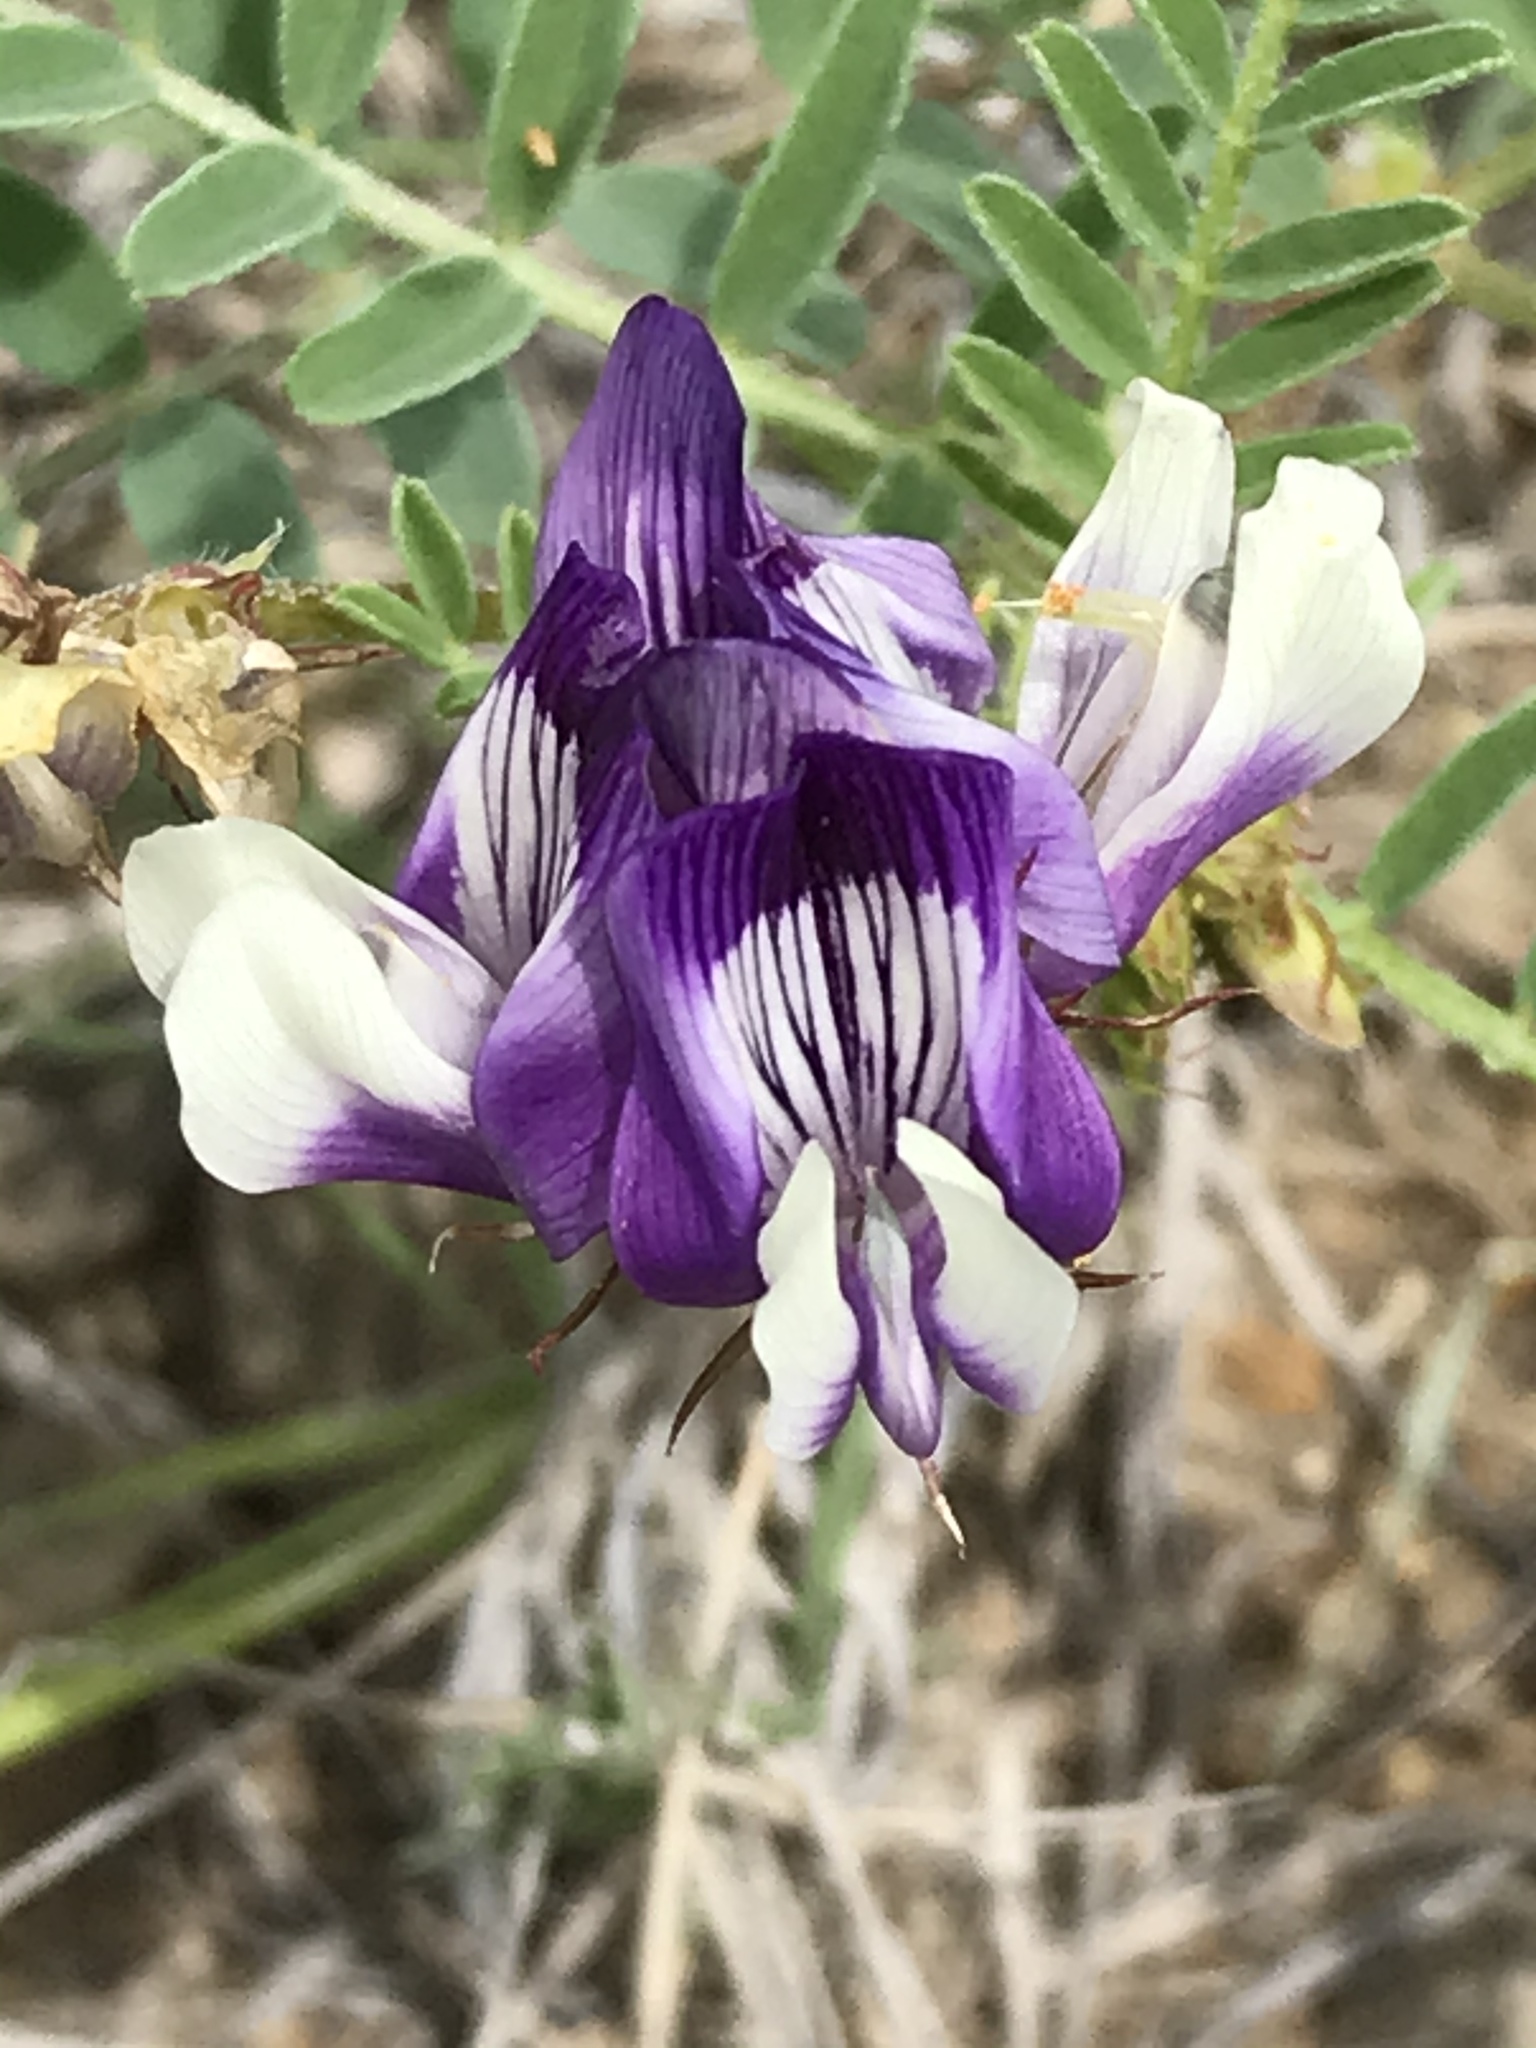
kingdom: Plantae
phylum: Tracheophyta
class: Magnoliopsida
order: Fabales
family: Fabaceae
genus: Astragalus
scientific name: Astragalus lindheimeri
